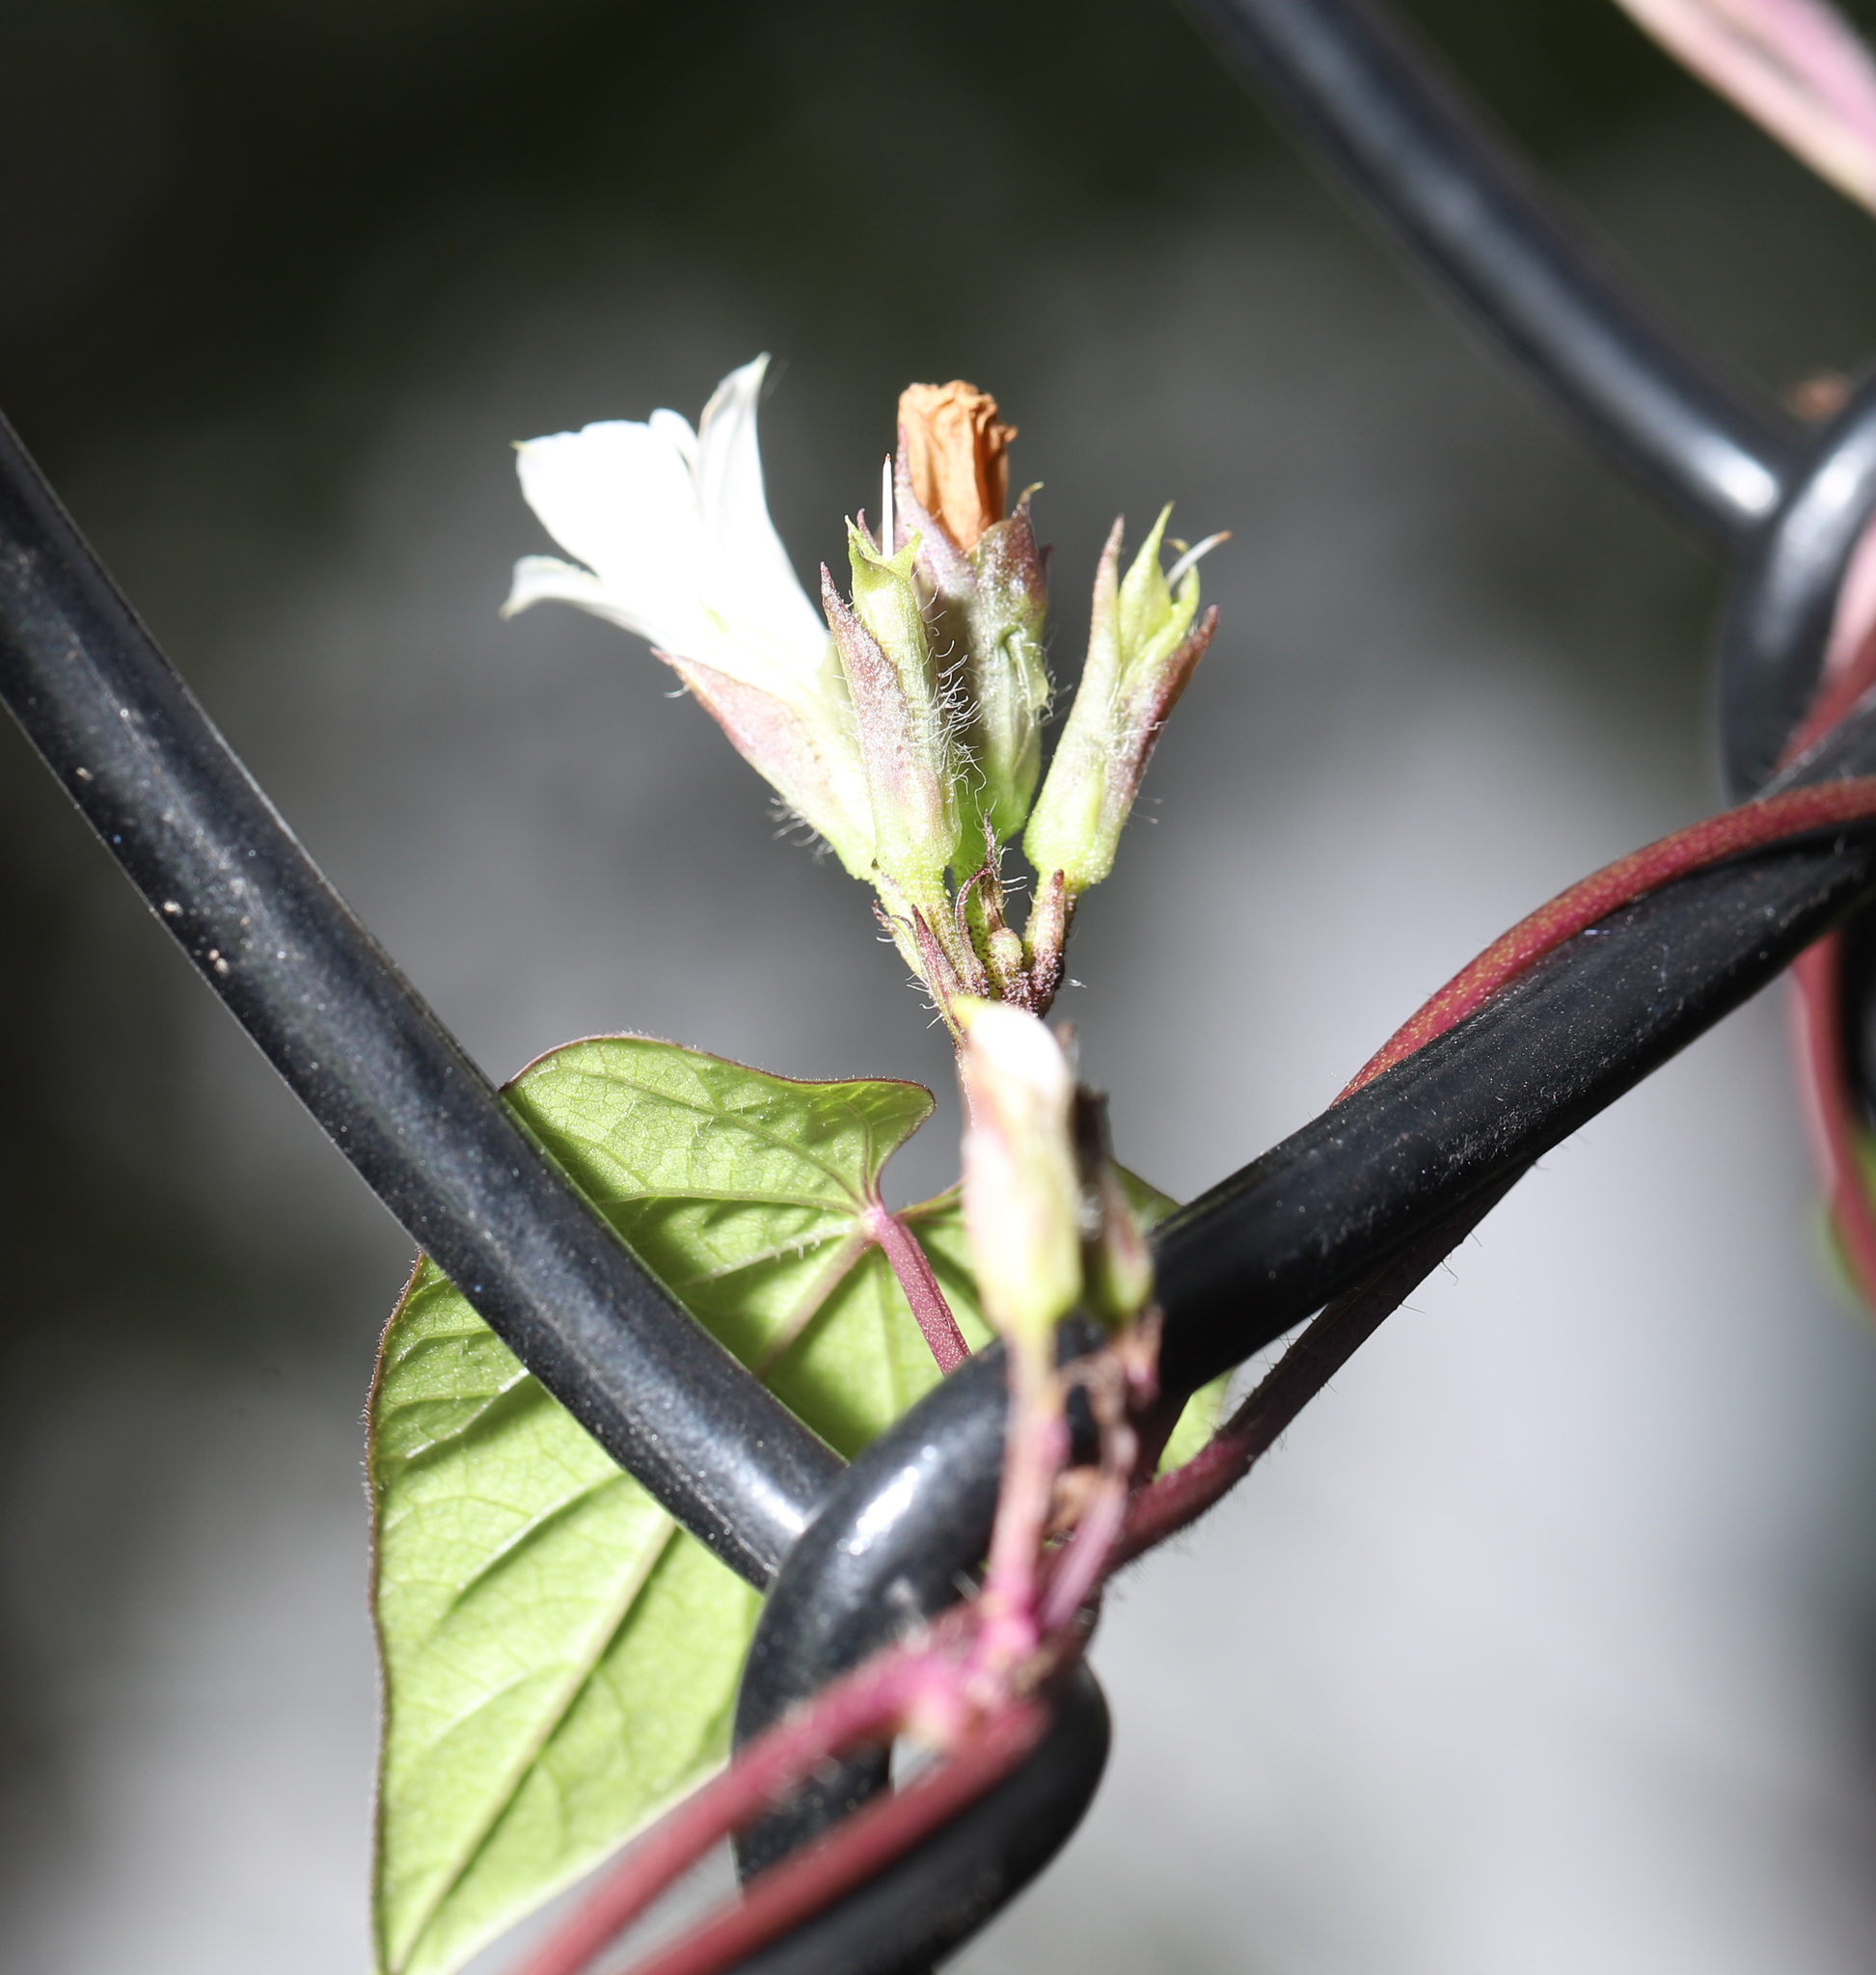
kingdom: Plantae
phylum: Tracheophyta
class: Magnoliopsida
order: Solanales
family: Convolvulaceae
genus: Ipomoea
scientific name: Ipomoea lacunosa
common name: White morning-glory
